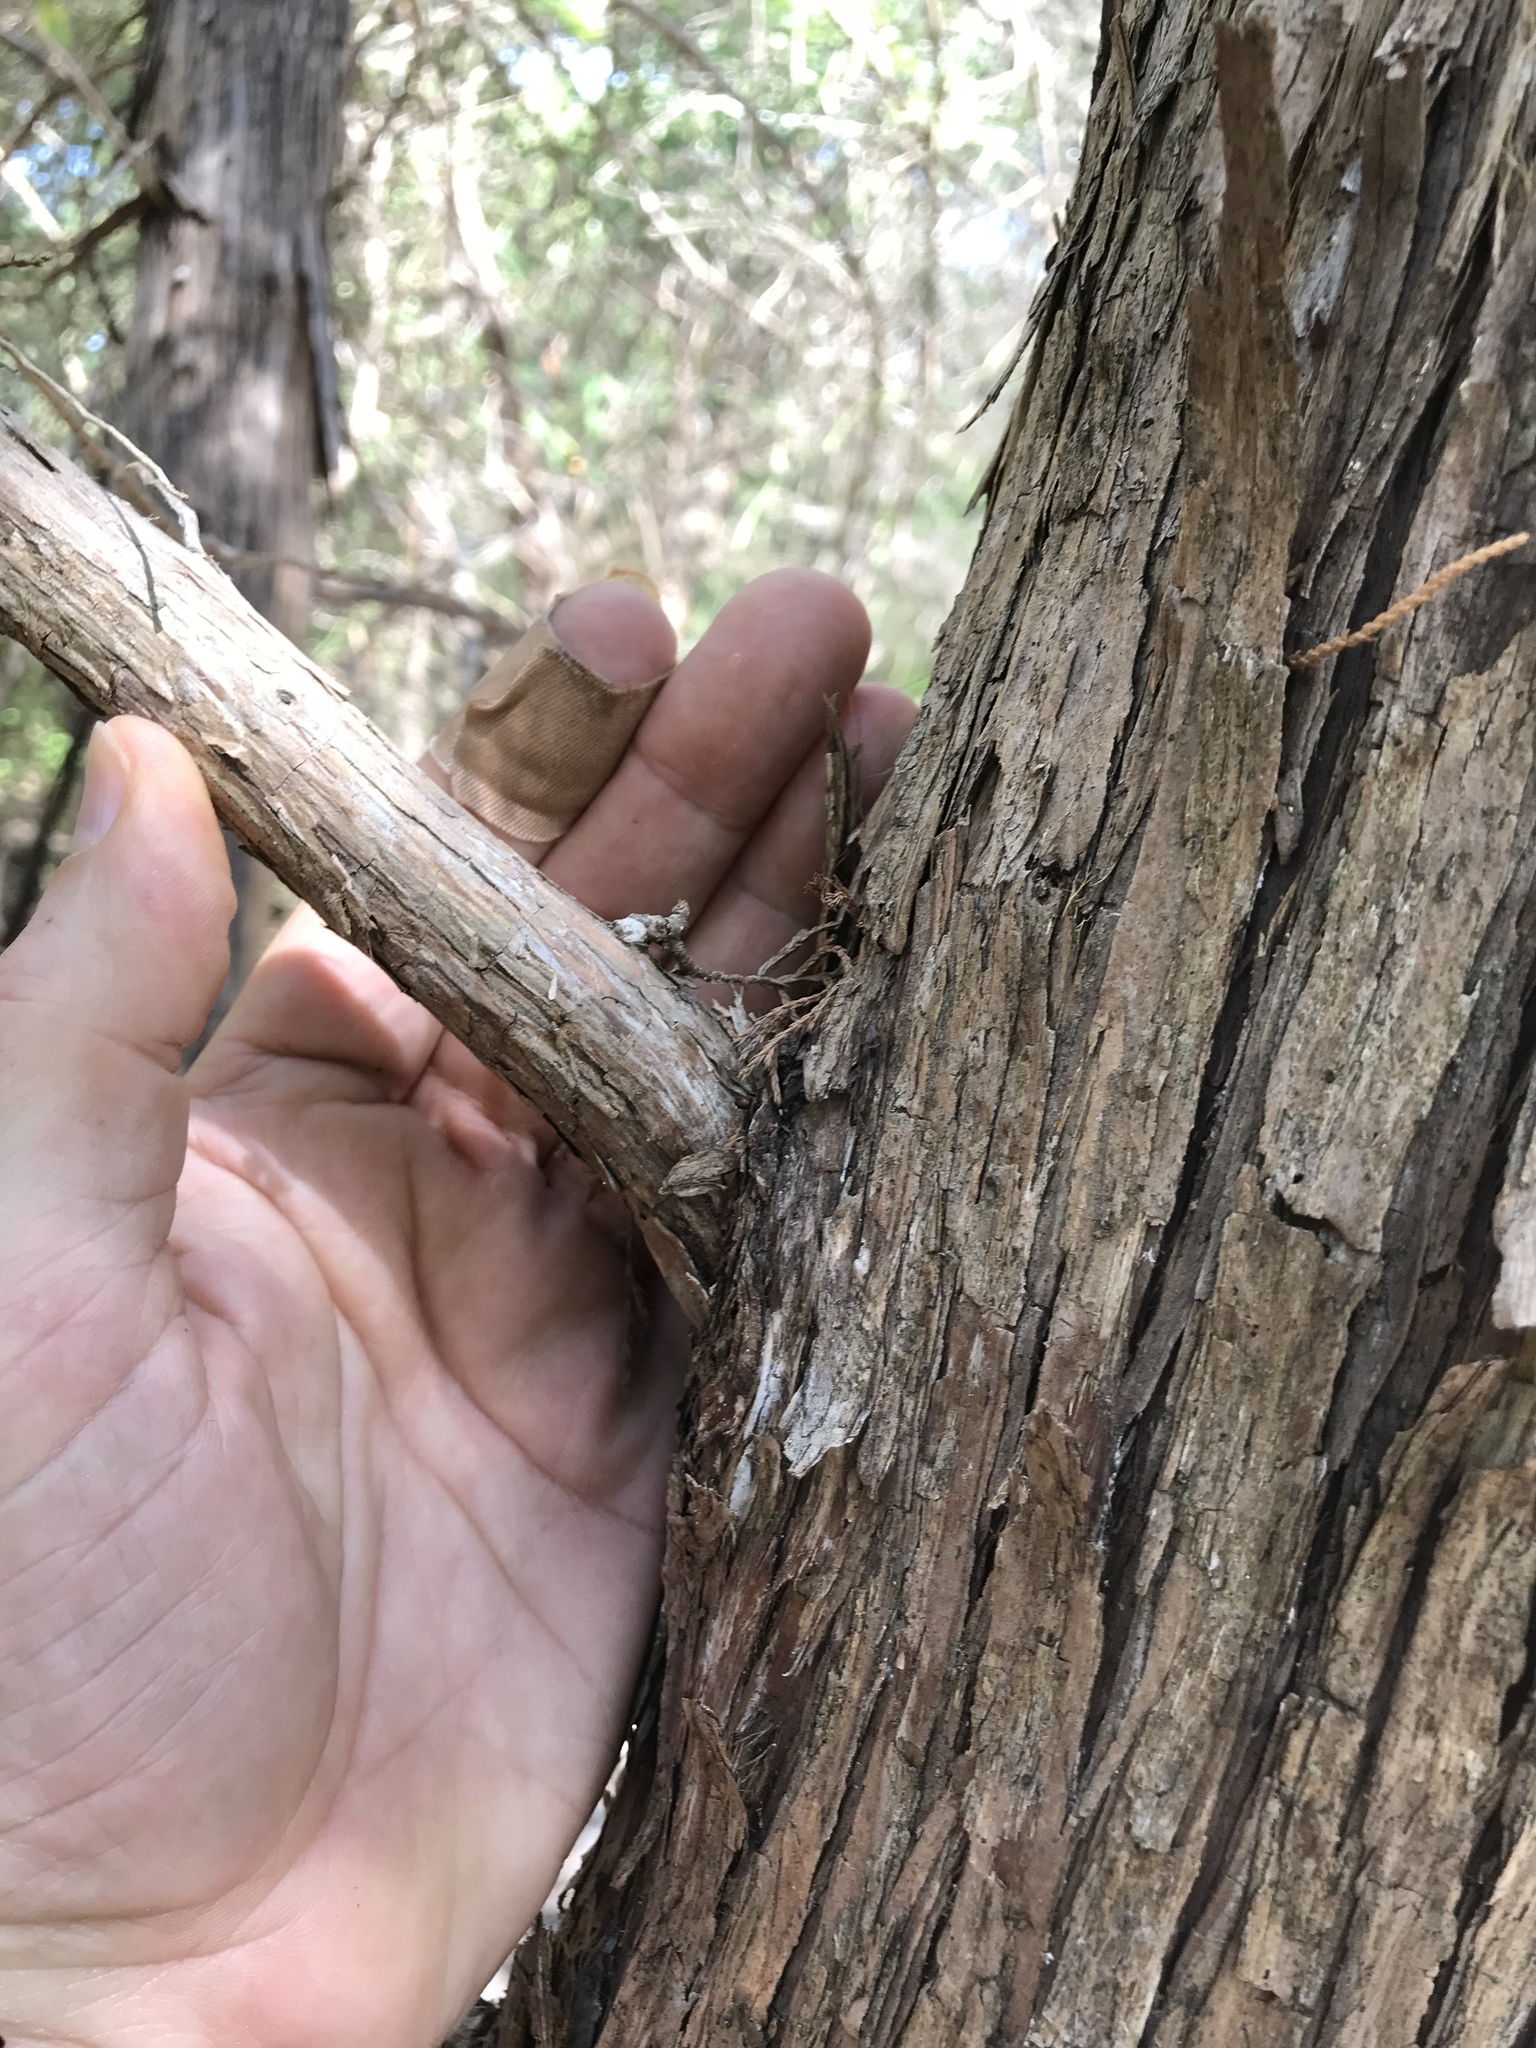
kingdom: Plantae
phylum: Tracheophyta
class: Pinopsida
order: Pinales
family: Cupressaceae
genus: Juniperus
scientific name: Juniperus virginiana
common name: Red juniper
